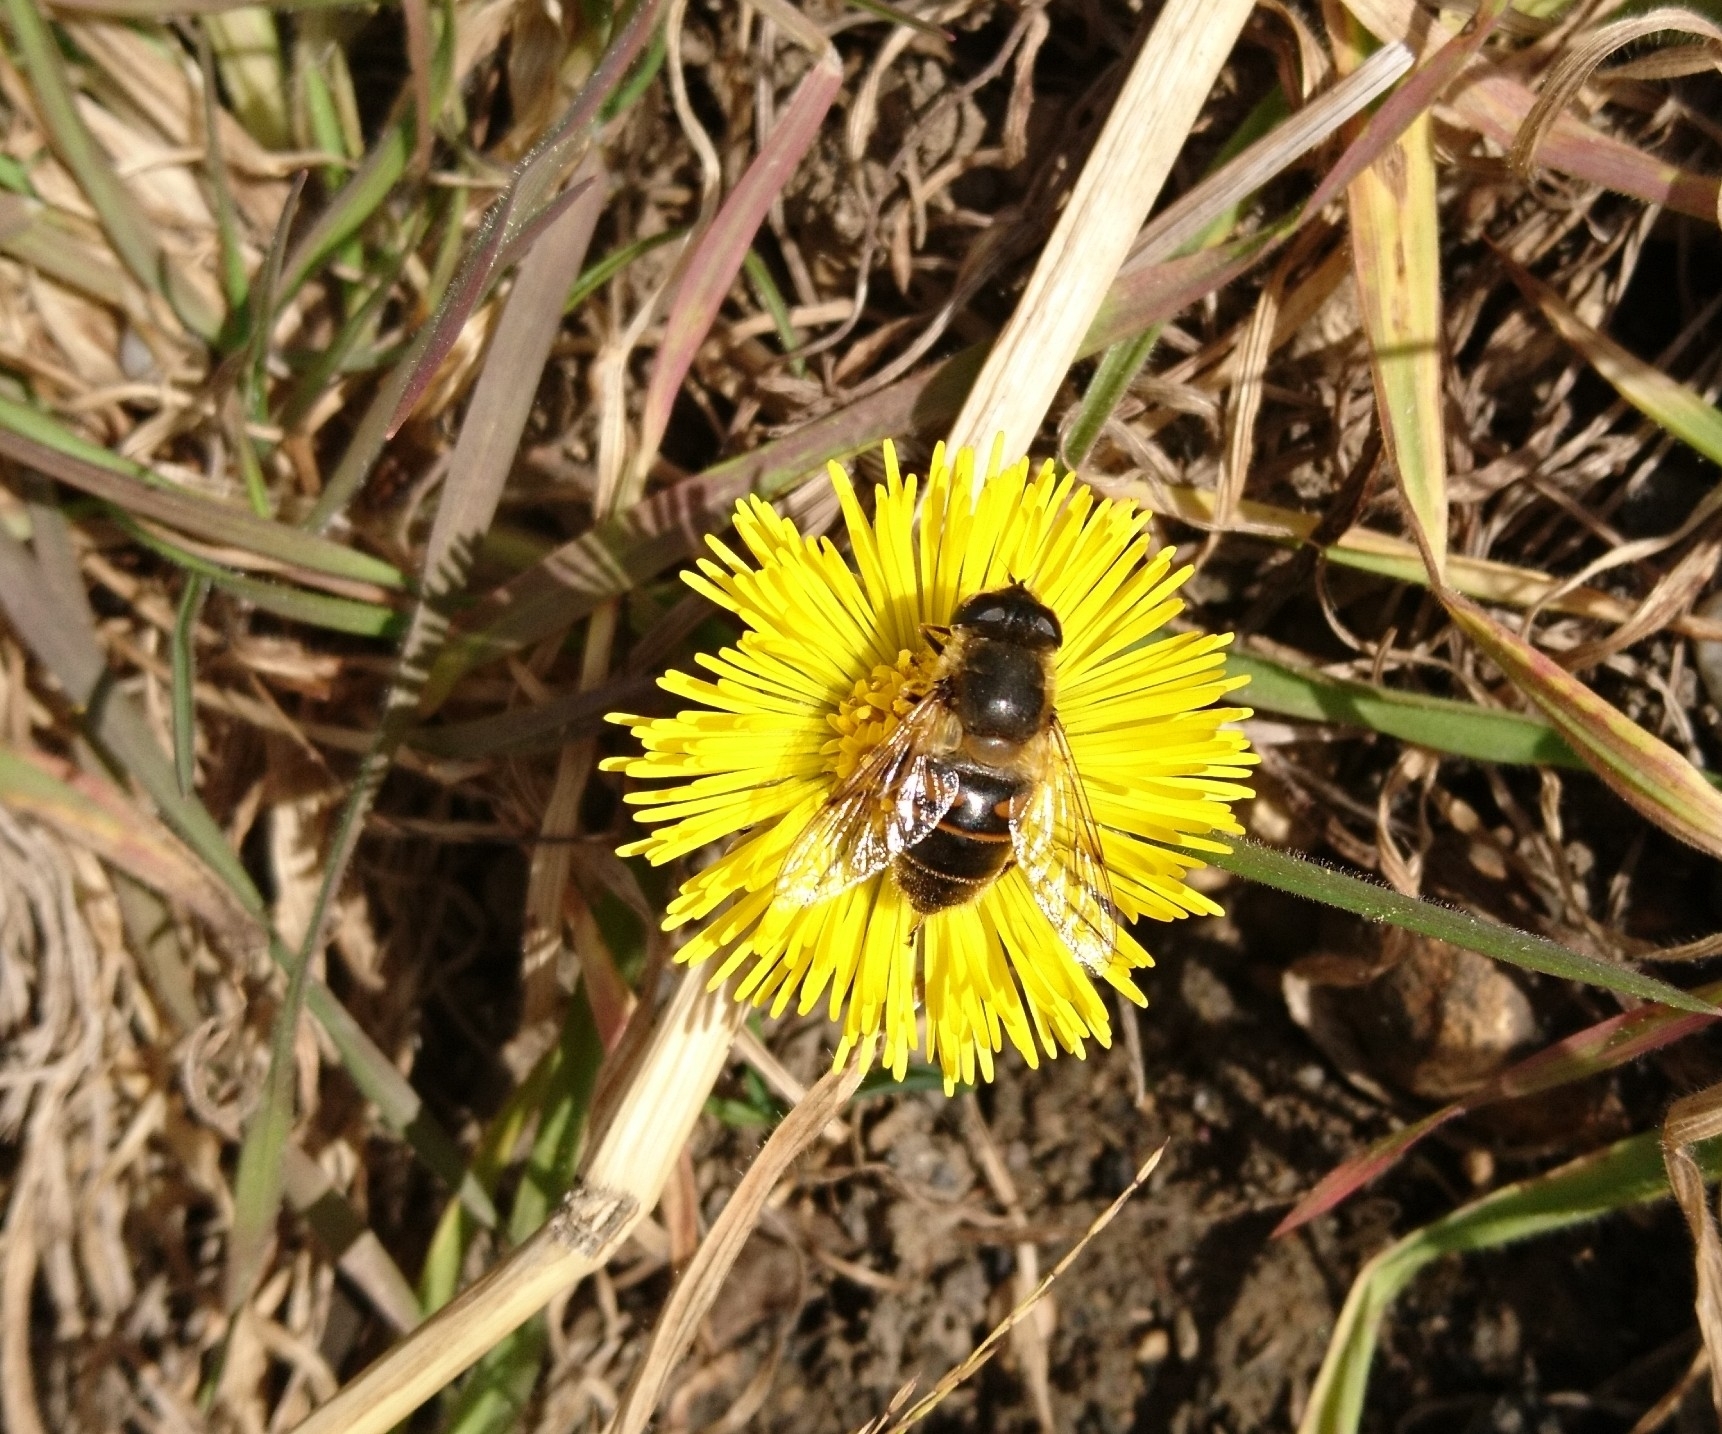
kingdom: Animalia
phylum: Arthropoda
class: Insecta
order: Diptera
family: Syrphidae
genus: Eristalis
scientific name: Eristalis tenax
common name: Drone fly
